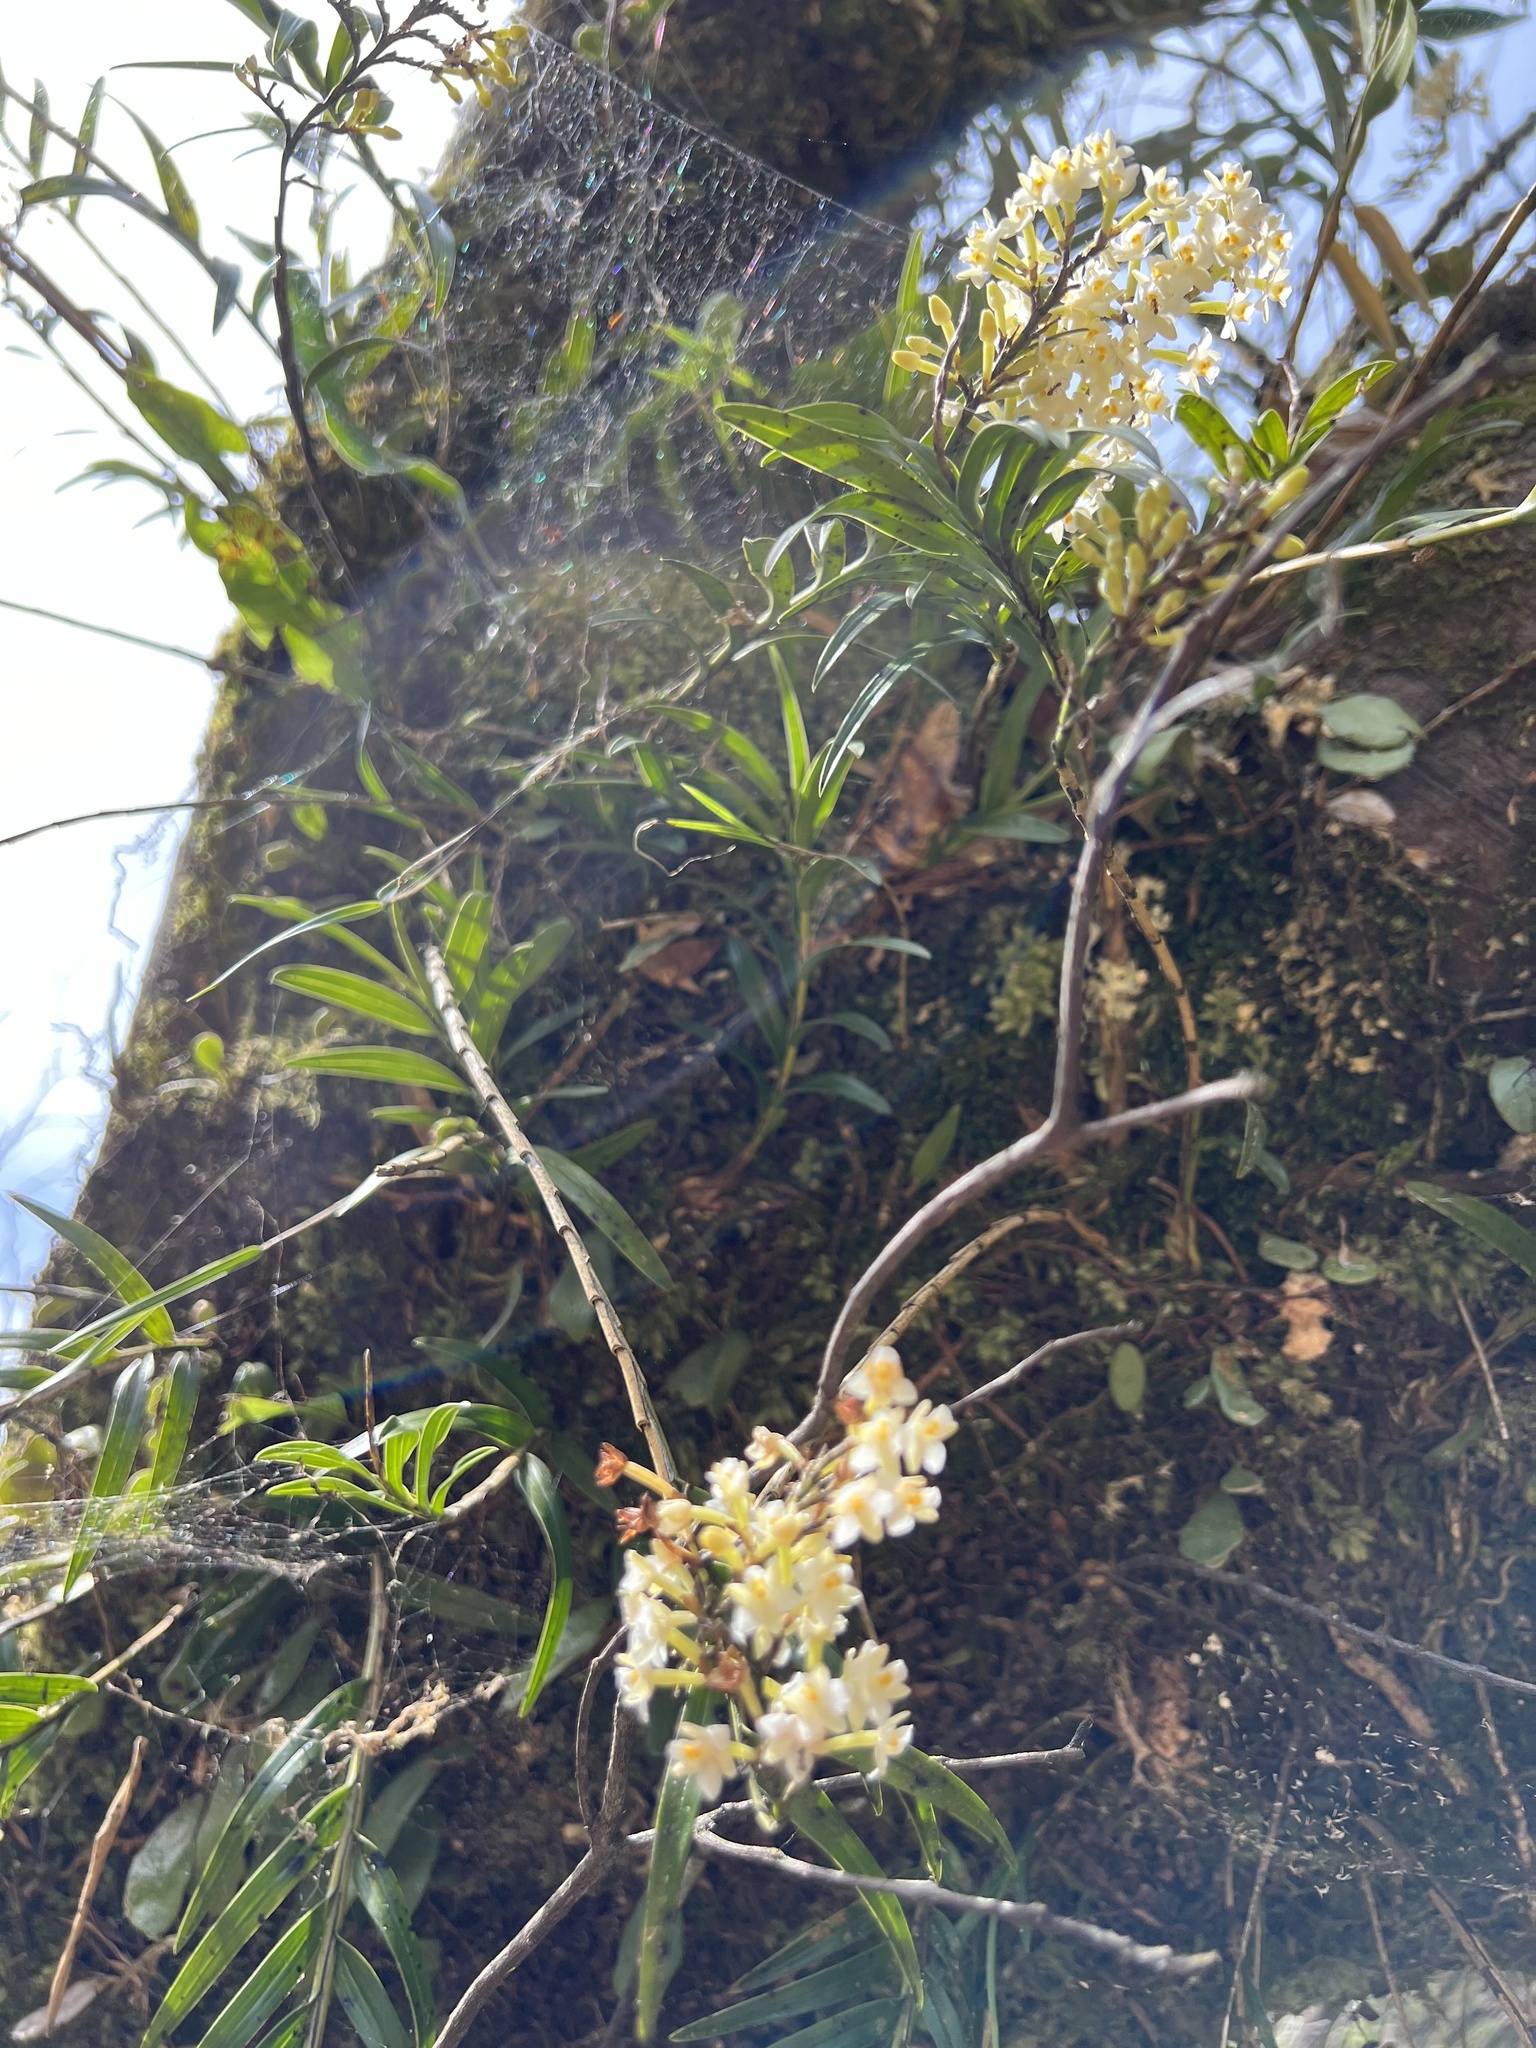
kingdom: Plantae
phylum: Tracheophyta
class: Liliopsida
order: Asparagales
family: Orchidaceae
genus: Earina
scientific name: Earina autumnalis
